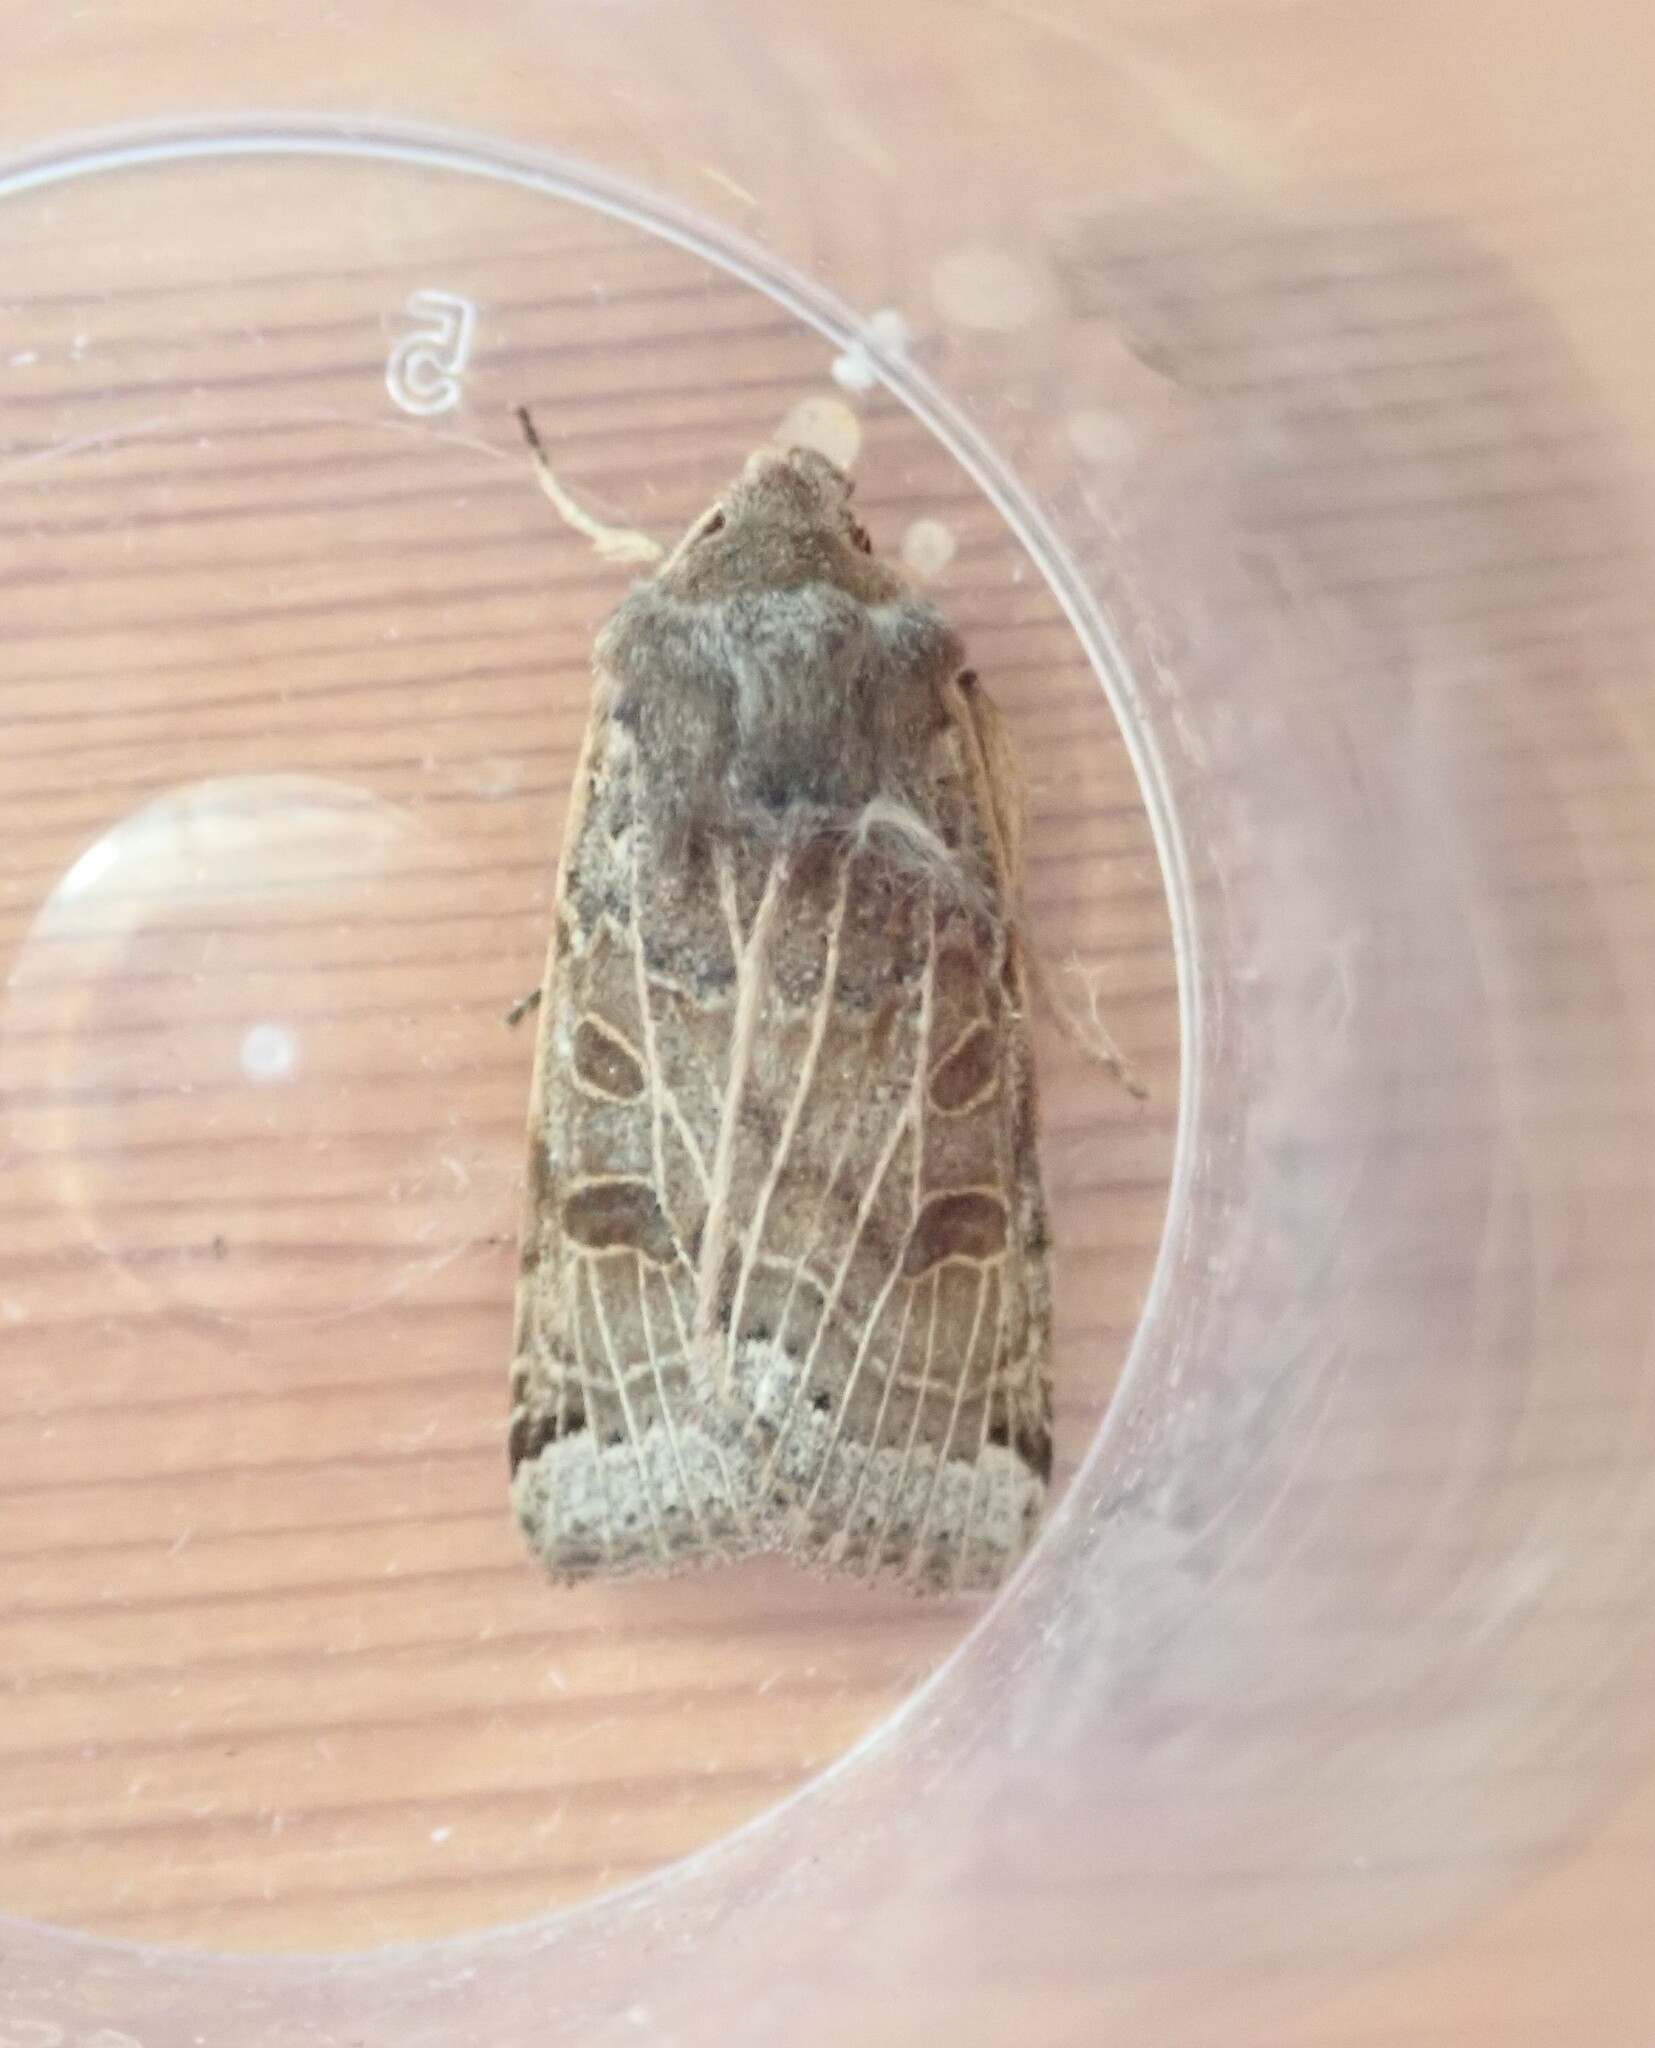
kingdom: Animalia
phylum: Arthropoda
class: Insecta
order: Lepidoptera
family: Noctuidae
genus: Agrochola
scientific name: Agrochola lunosa
